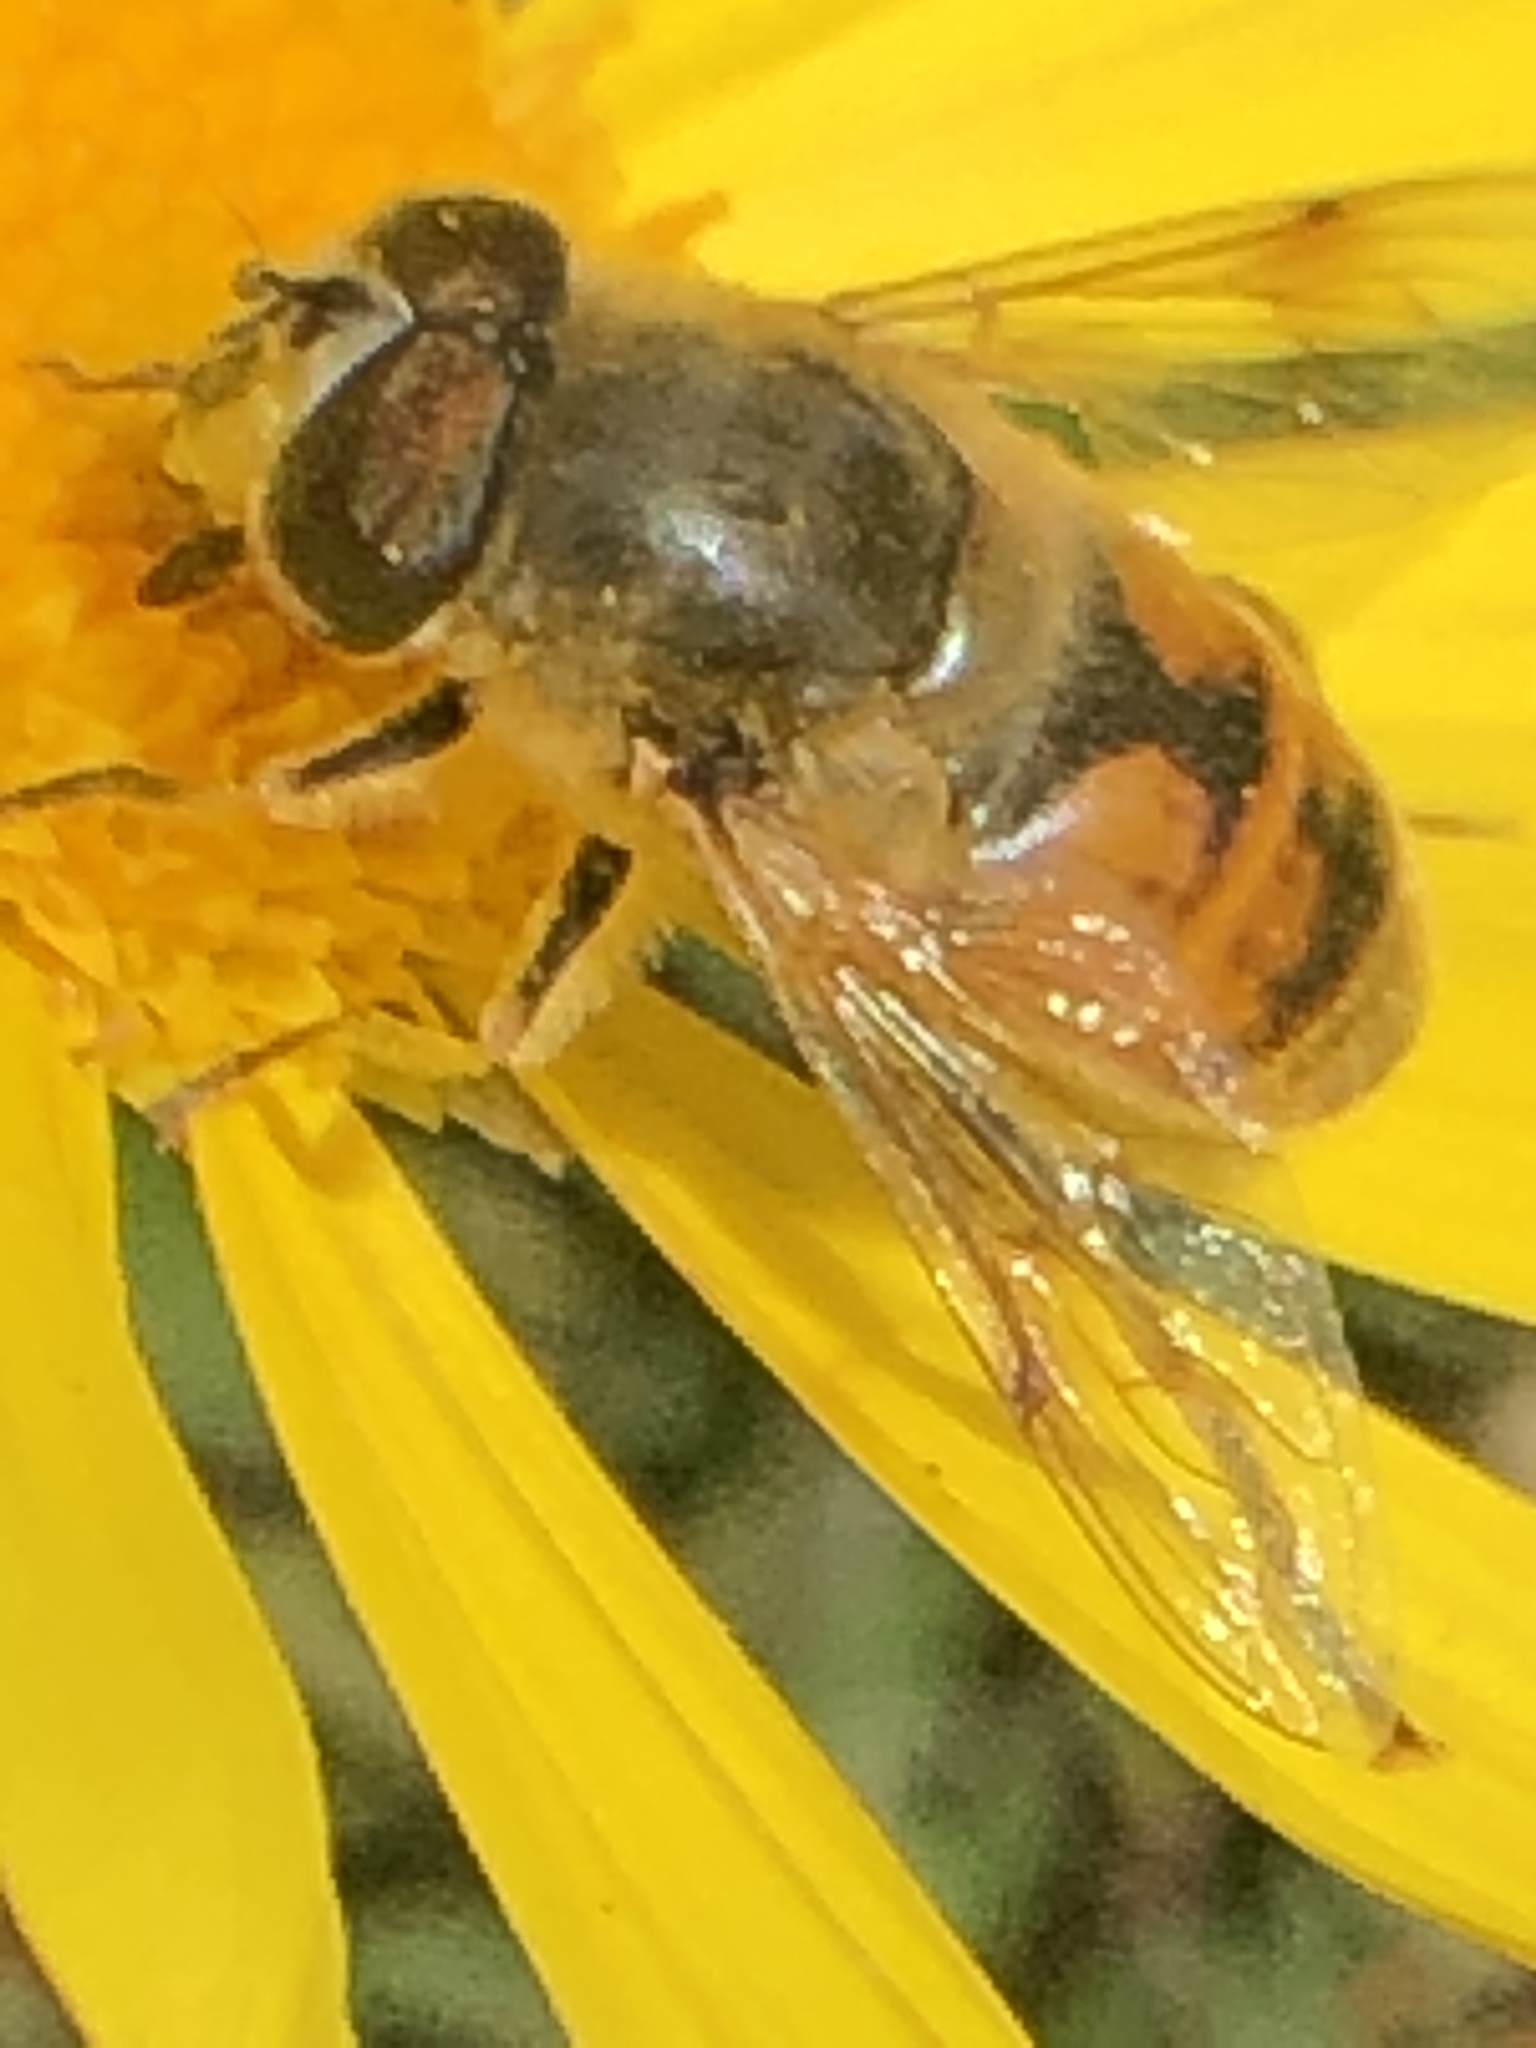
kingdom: Animalia
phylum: Arthropoda
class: Insecta
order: Diptera
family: Syrphidae
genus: Eristalis
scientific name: Eristalis tenax
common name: Drone fly
